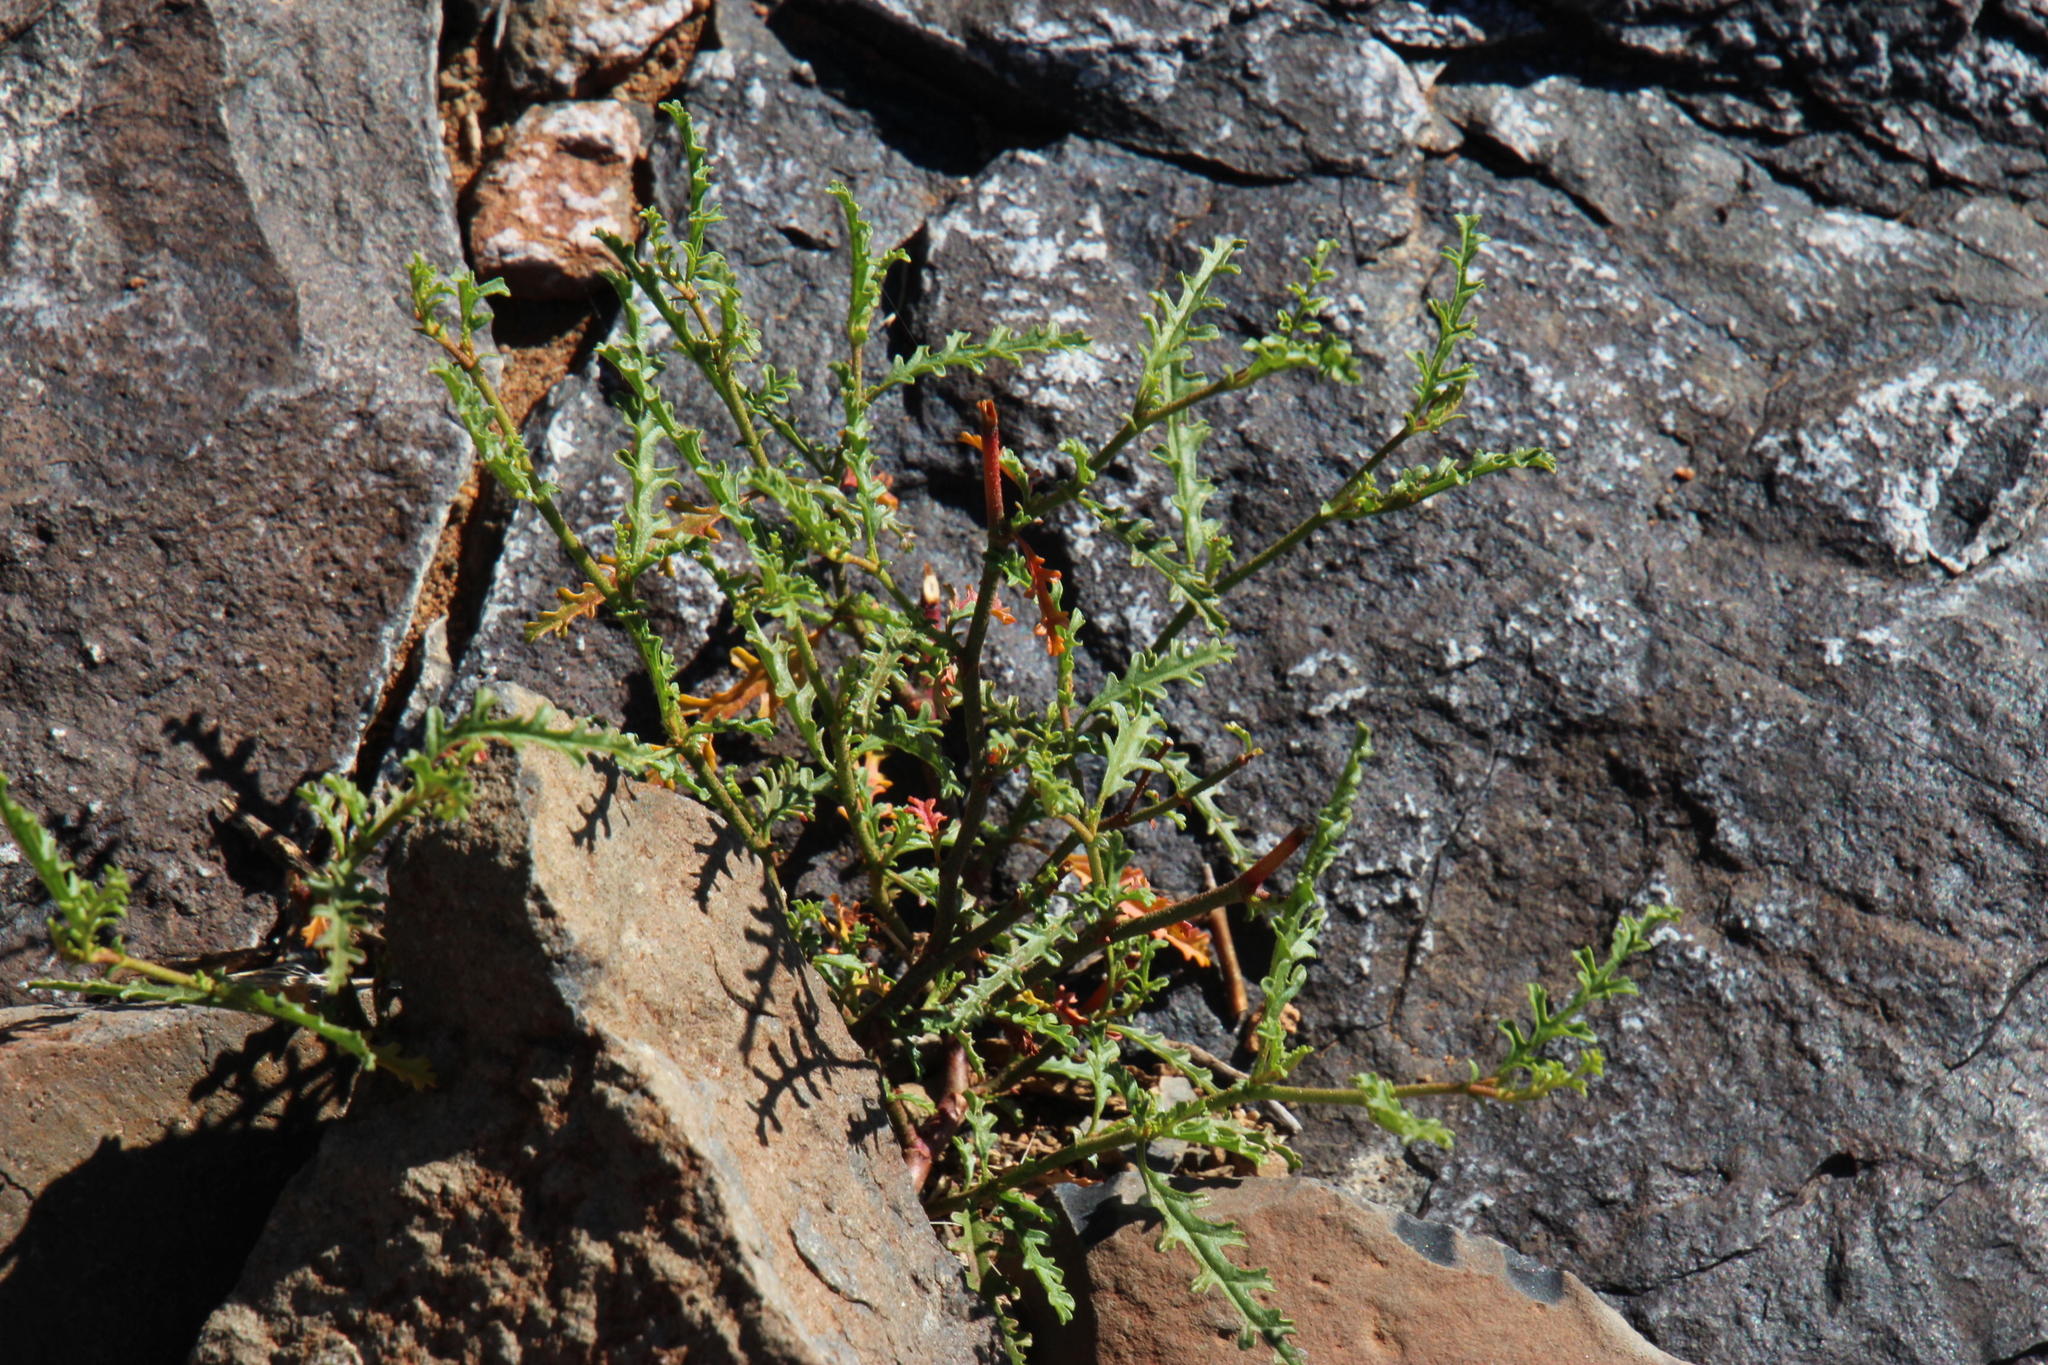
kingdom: Plantae
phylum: Tracheophyta
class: Magnoliopsida
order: Malvales
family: Malvaceae
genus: Hermannia
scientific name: Hermannia pulchella
